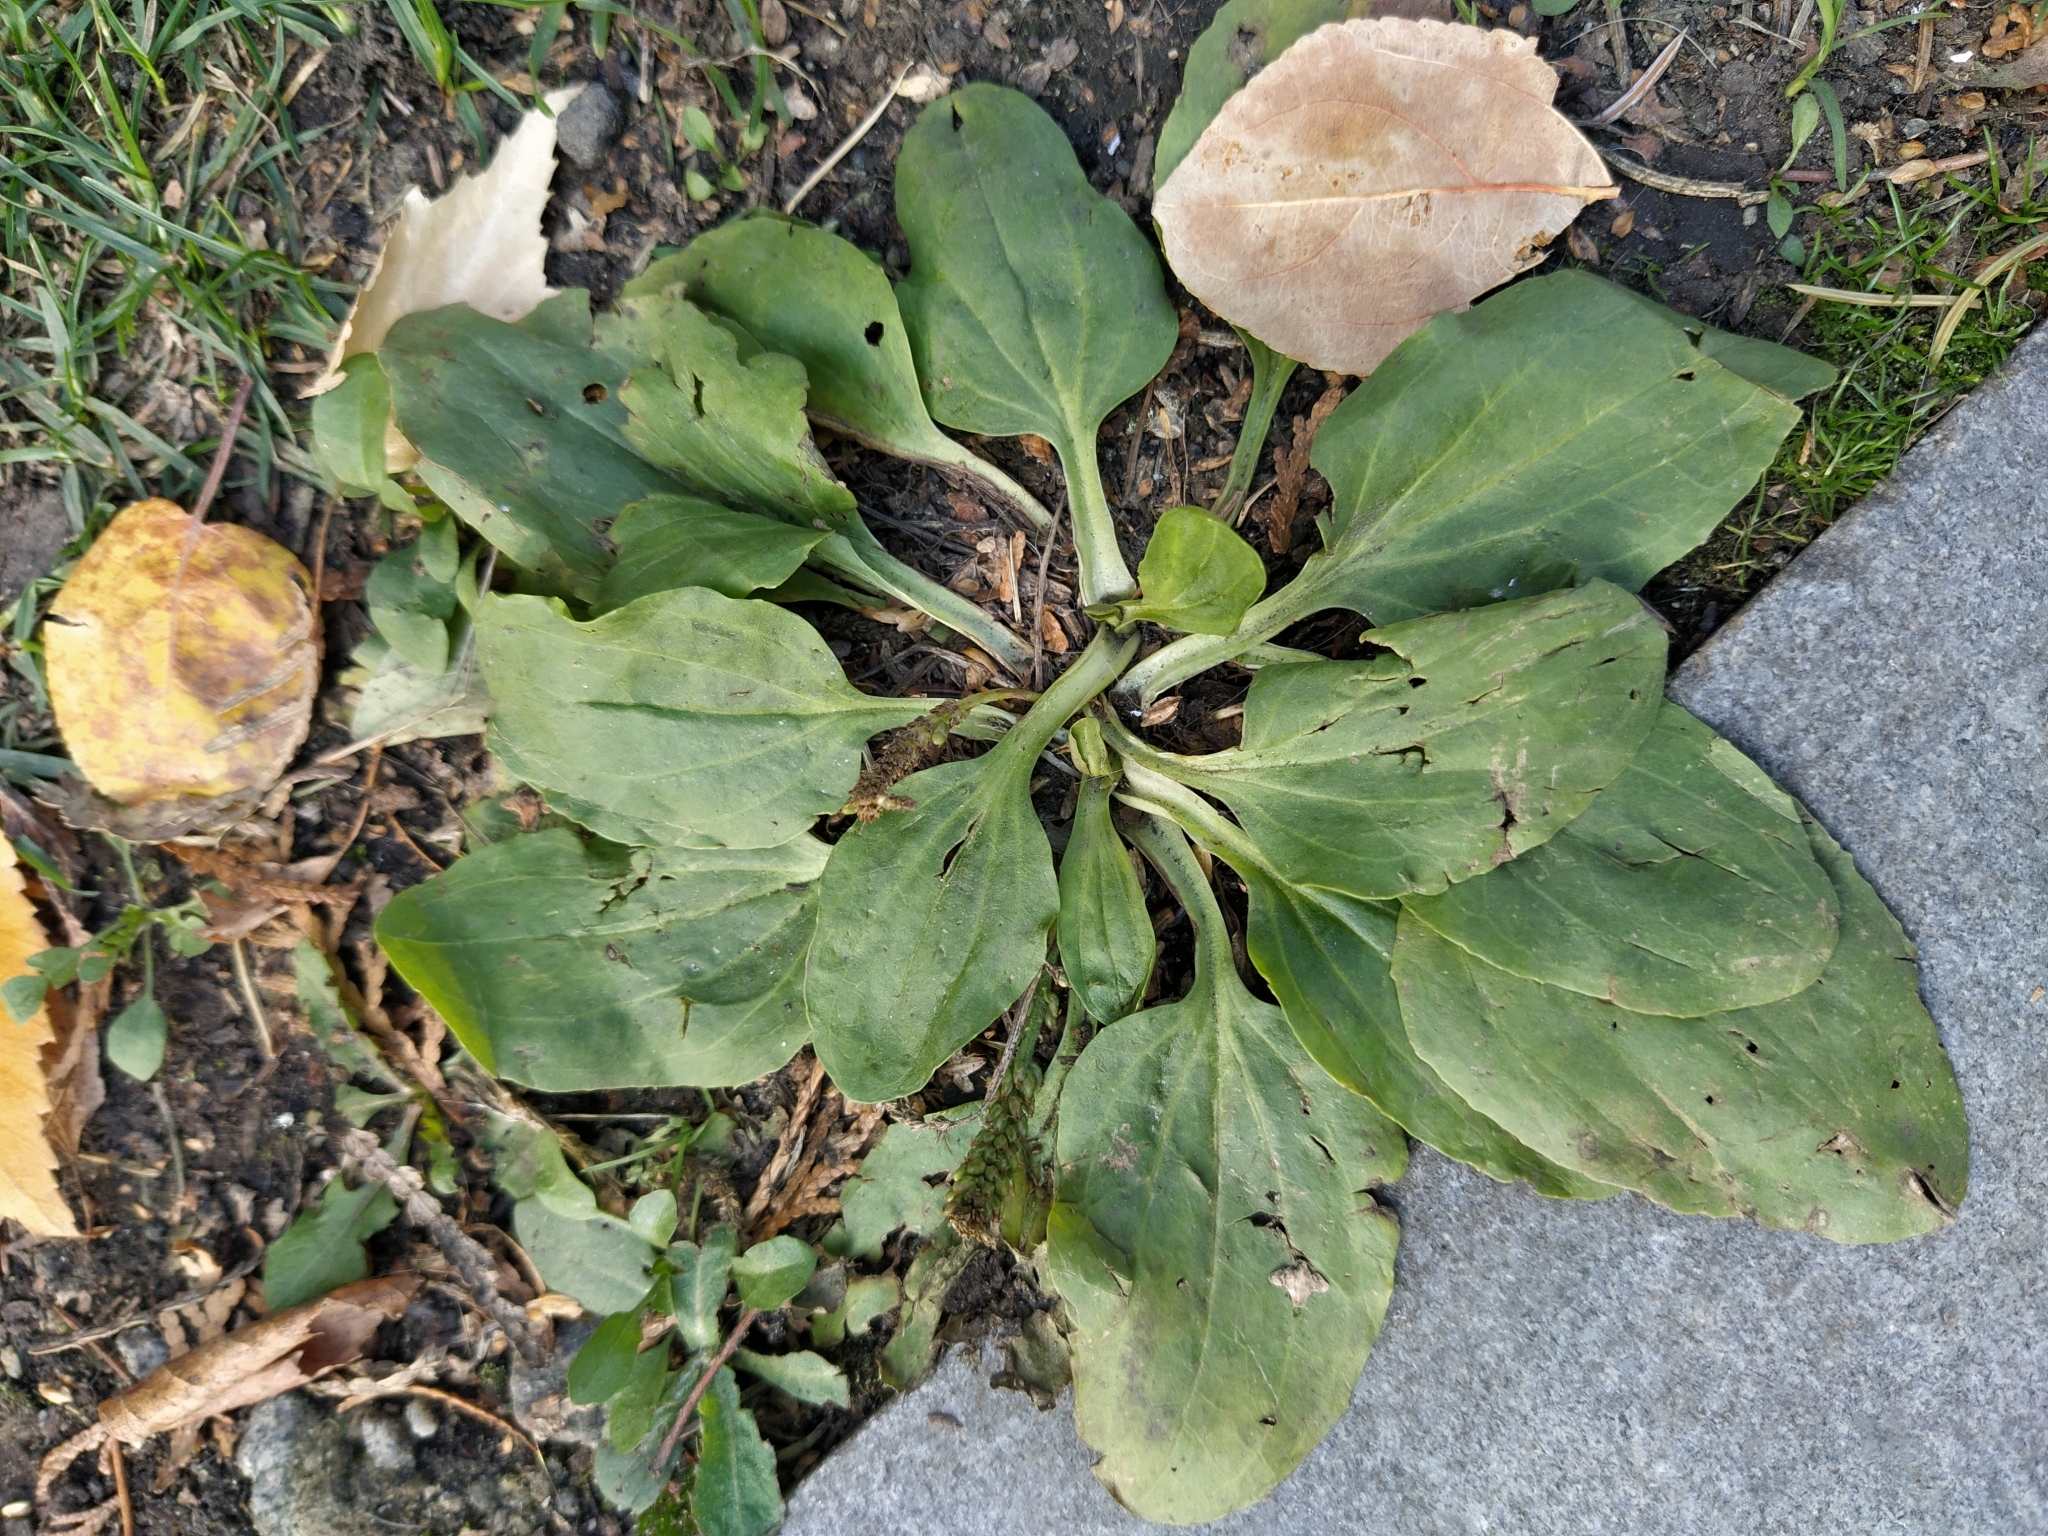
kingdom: Plantae
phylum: Tracheophyta
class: Magnoliopsida
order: Lamiales
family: Plantaginaceae
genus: Plantago
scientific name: Plantago major
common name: Common plantain
